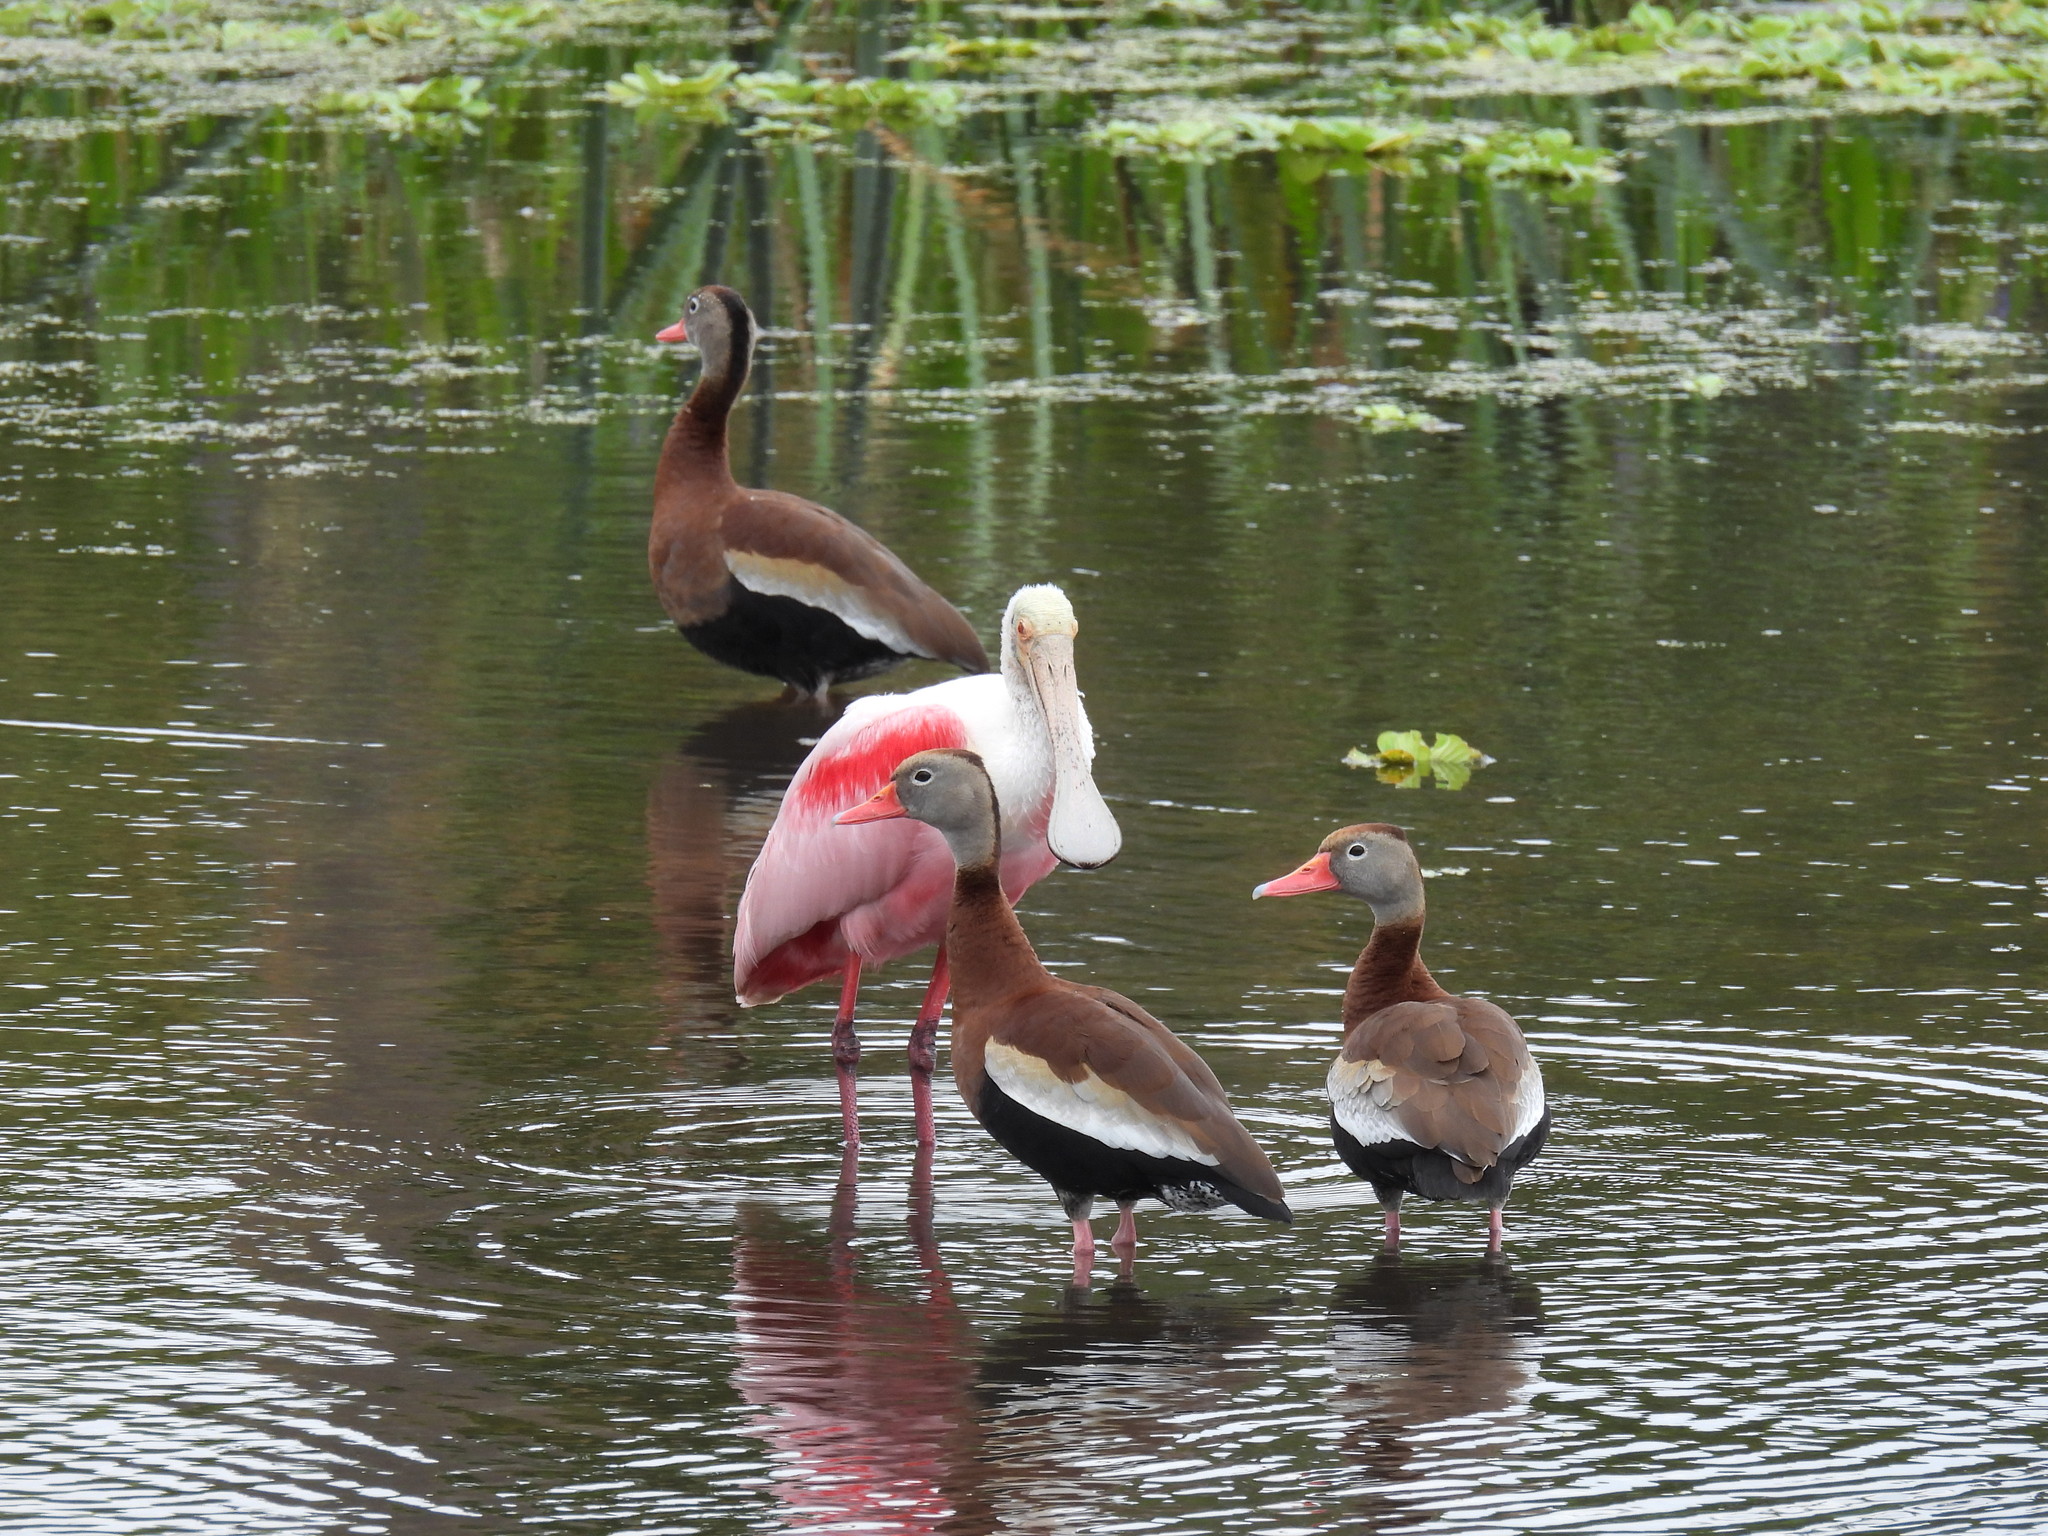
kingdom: Animalia
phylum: Chordata
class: Aves
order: Anseriformes
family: Anatidae
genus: Dendrocygna
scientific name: Dendrocygna autumnalis
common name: Black-bellied whistling duck
